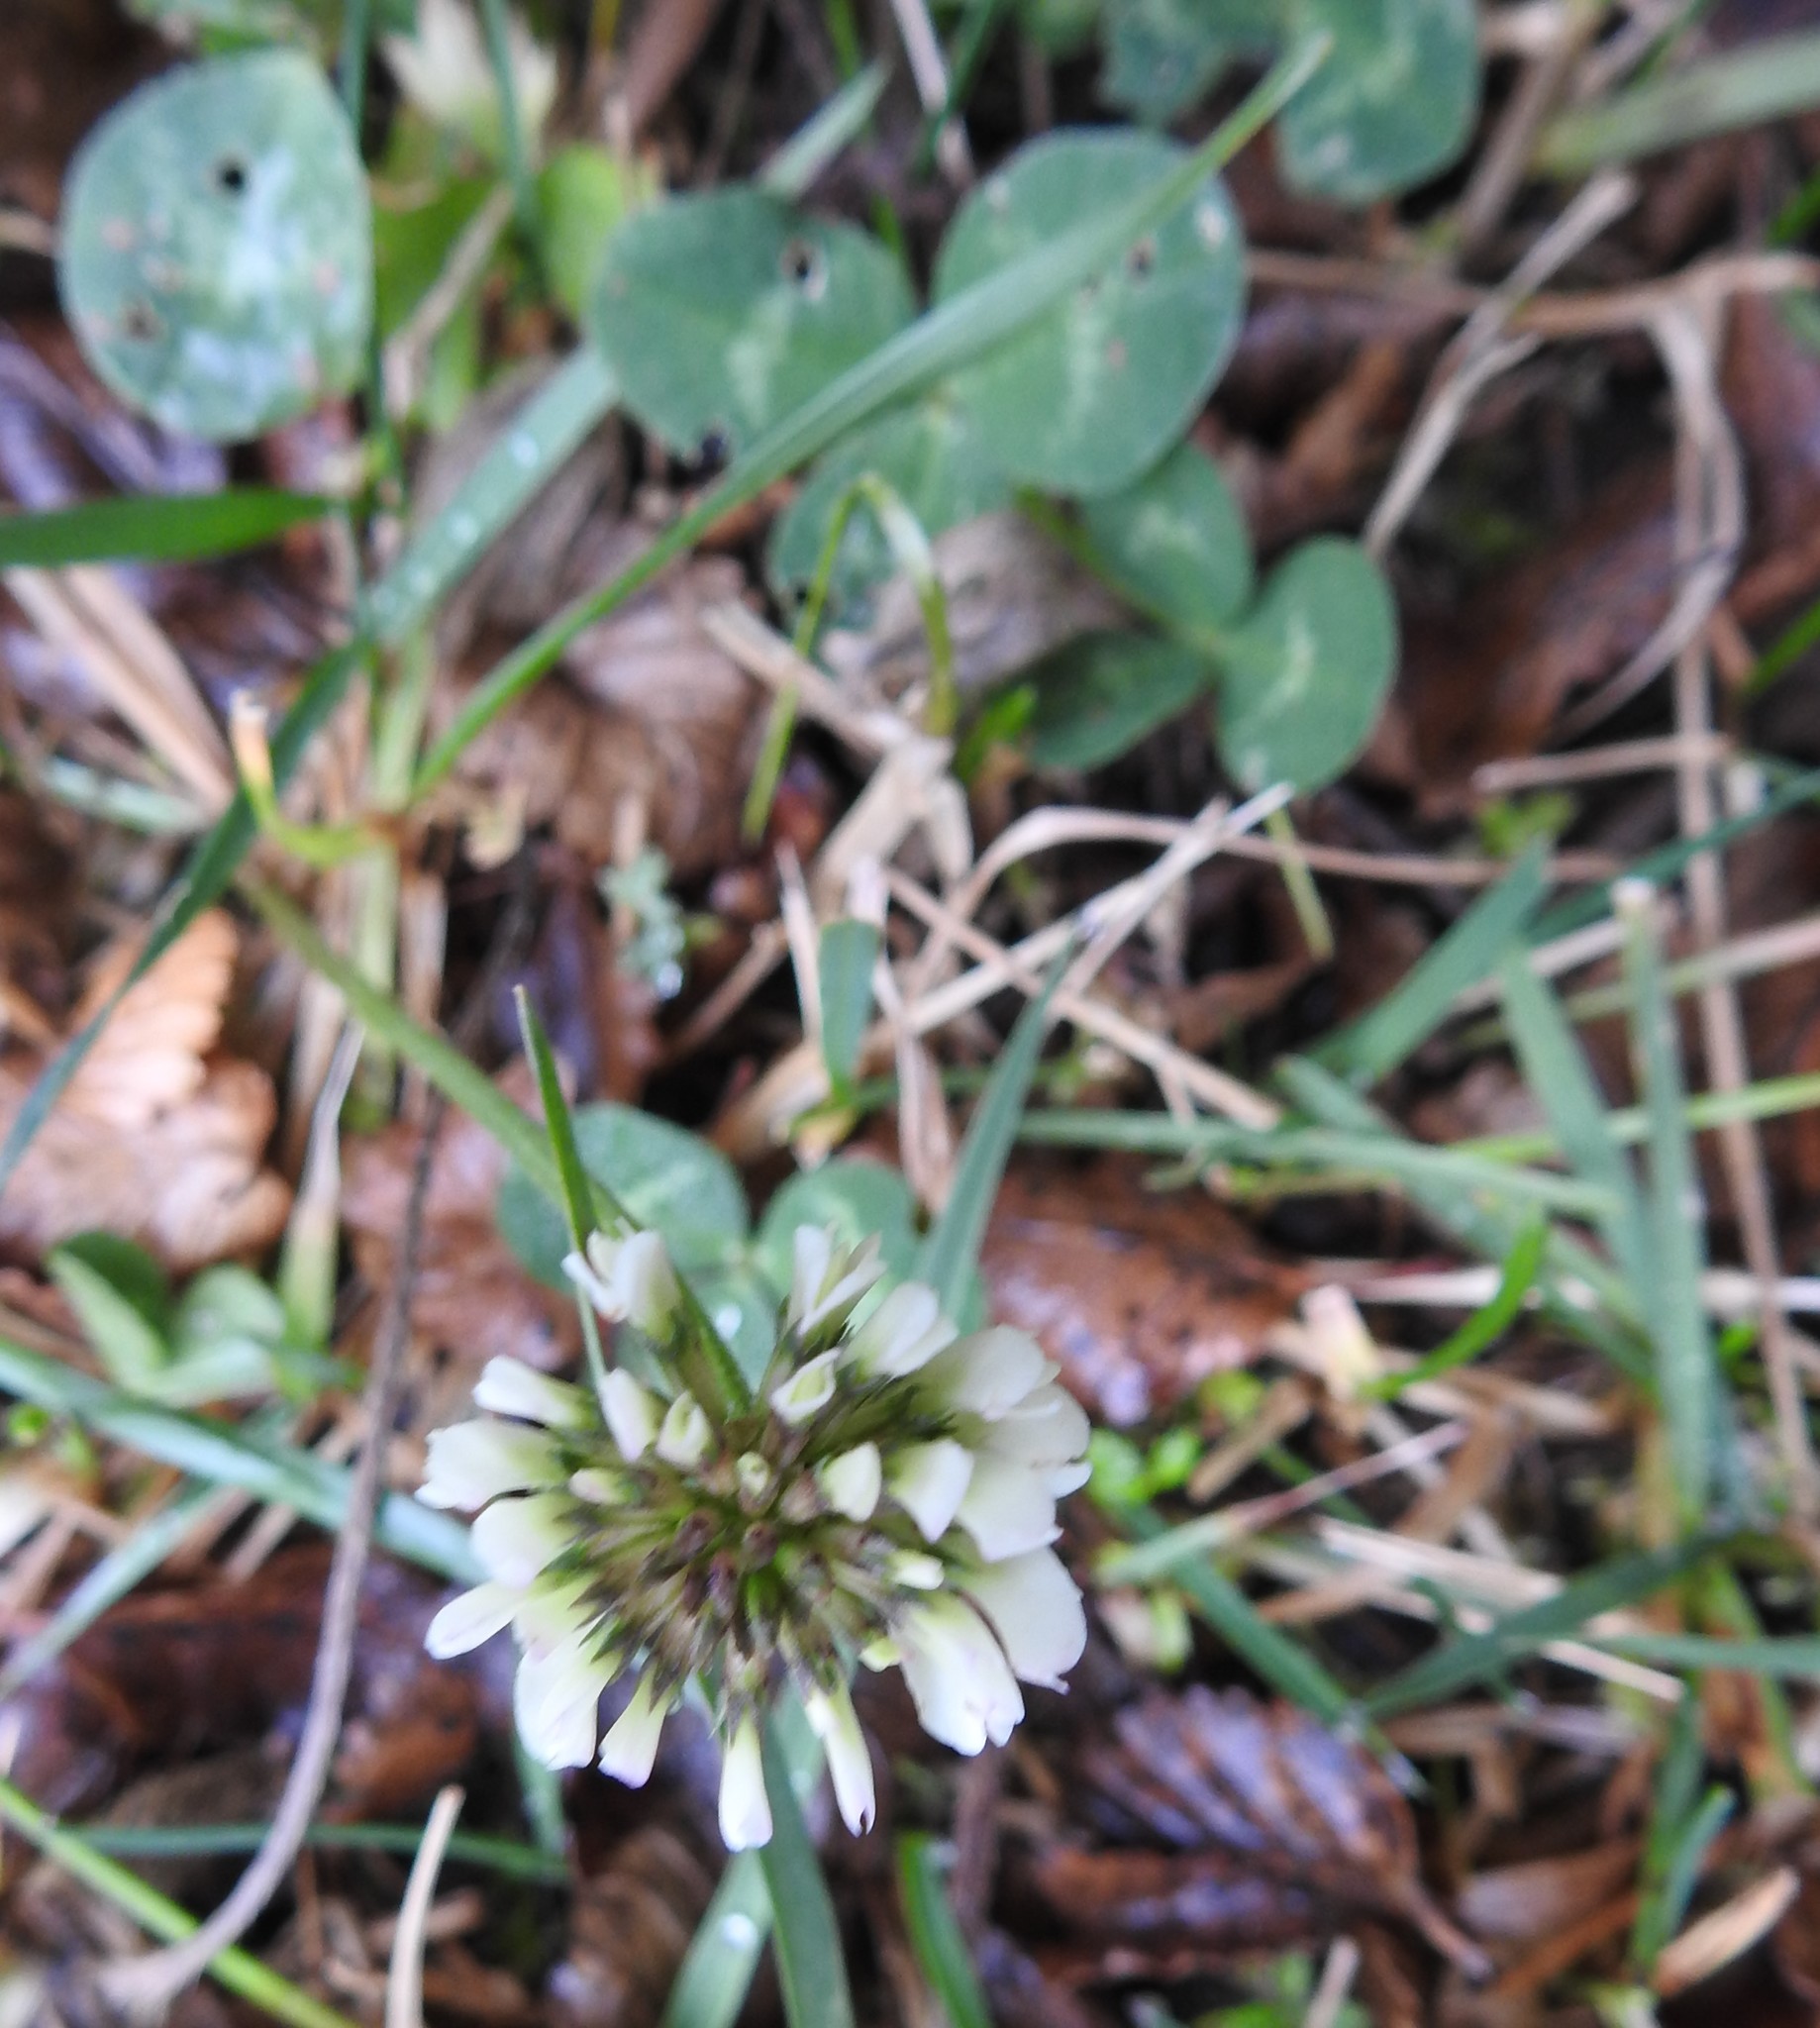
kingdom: Plantae
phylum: Tracheophyta
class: Magnoliopsida
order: Fabales
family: Fabaceae
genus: Trifolium
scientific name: Trifolium repens
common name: White clover
